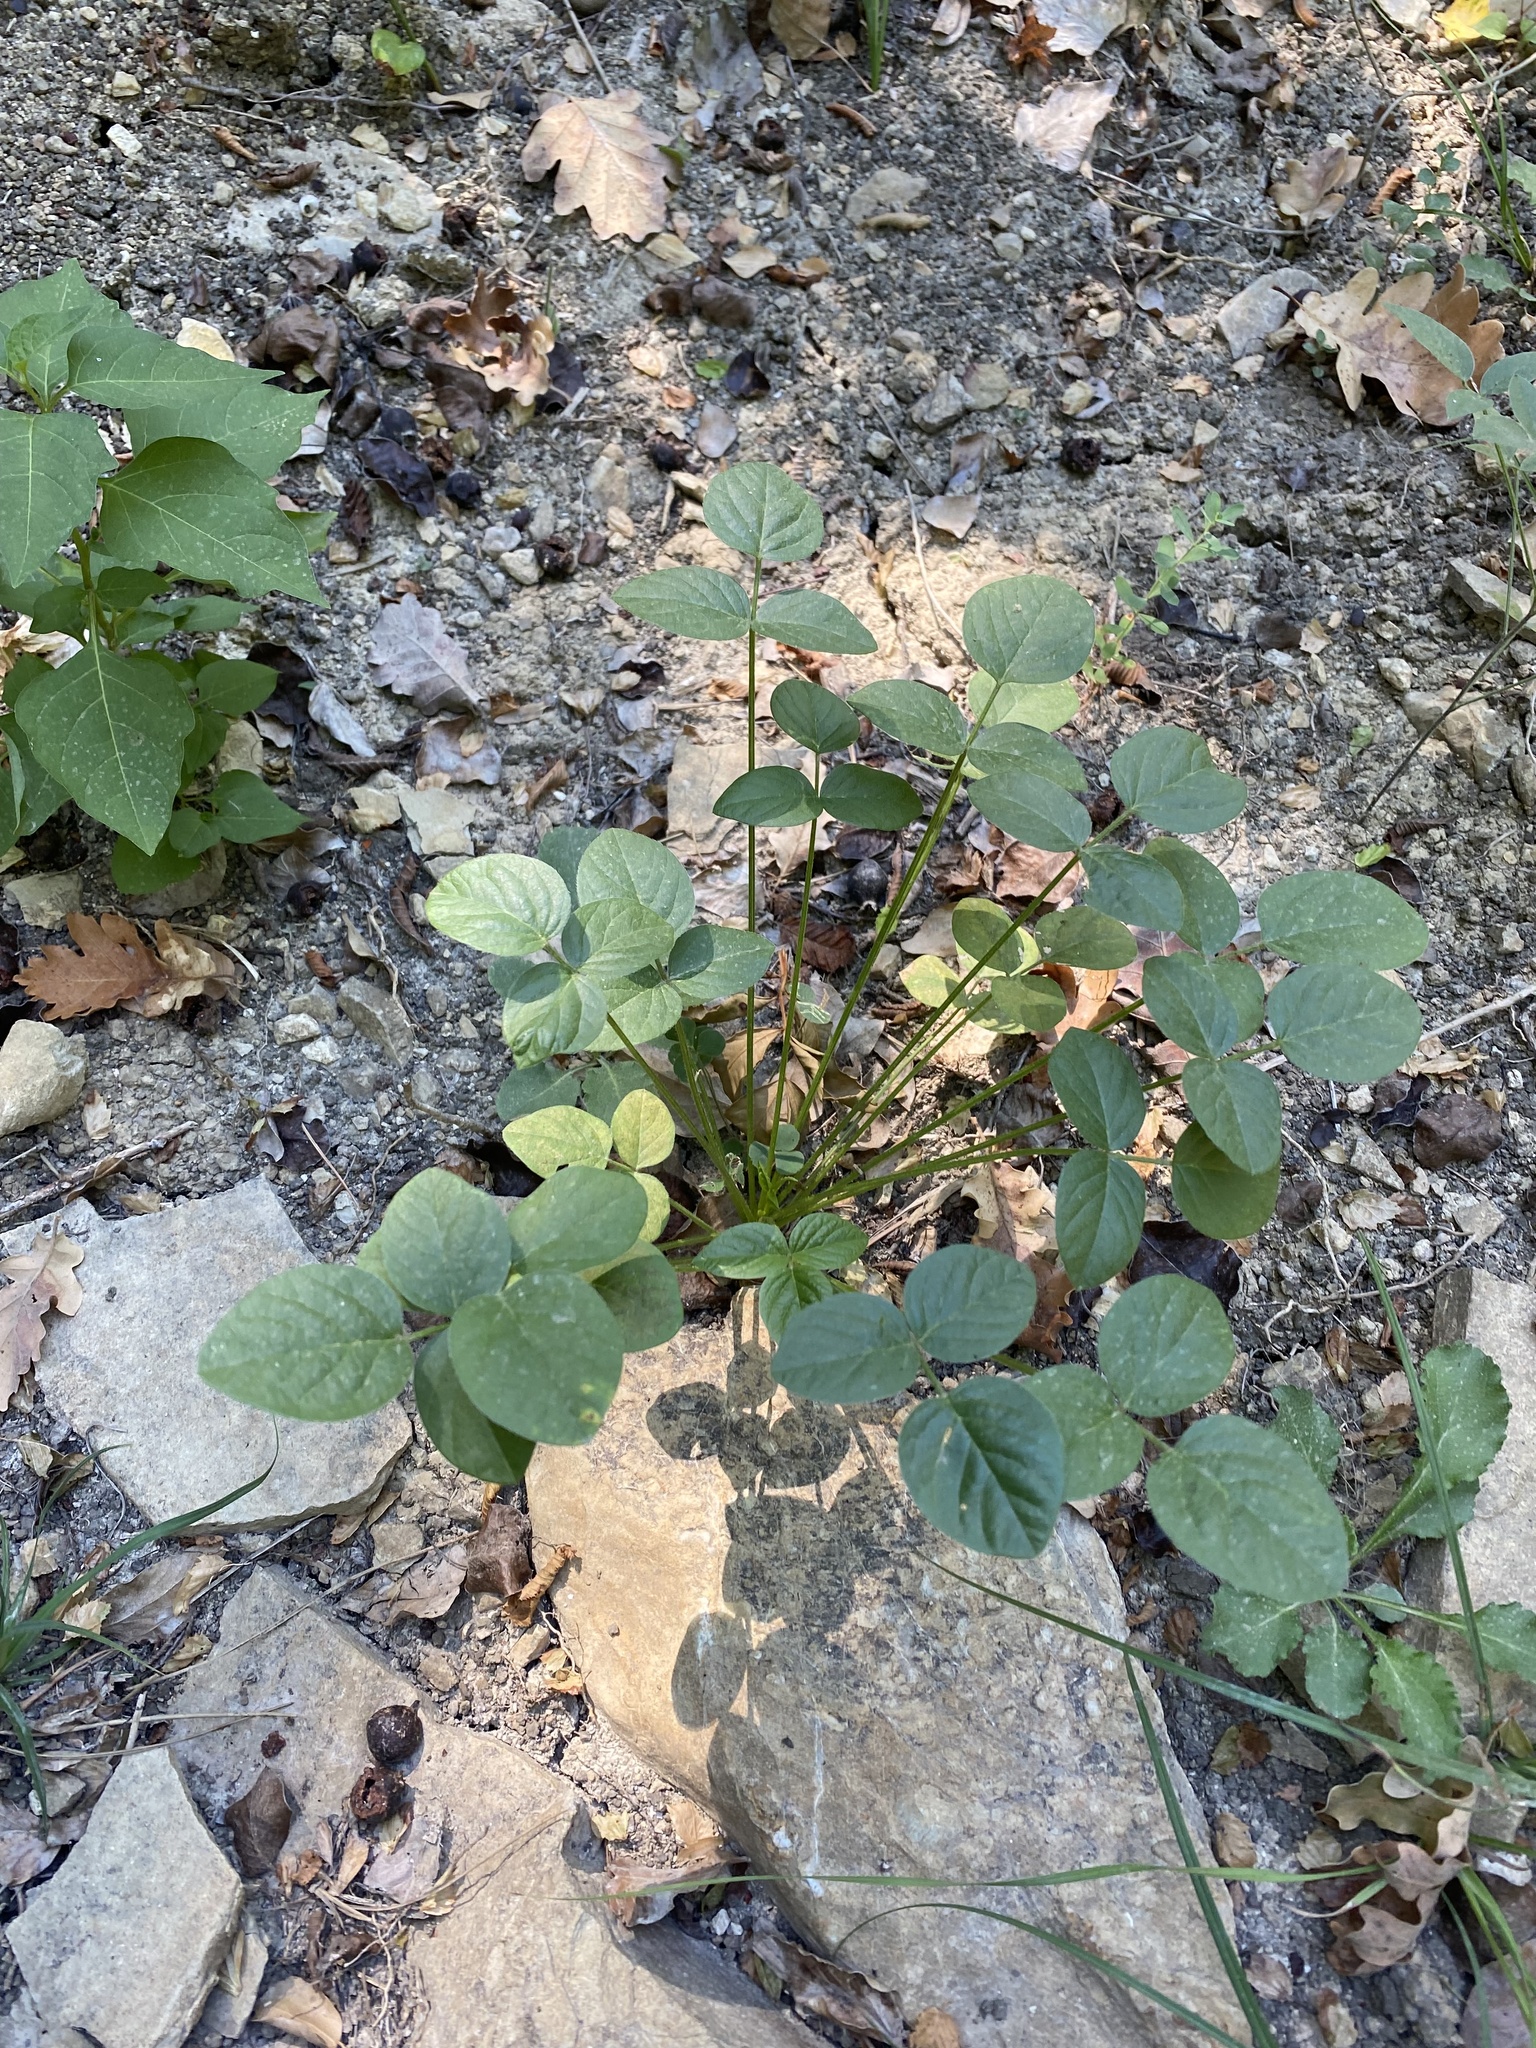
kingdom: Plantae
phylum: Tracheophyta
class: Magnoliopsida
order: Fabales
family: Fabaceae
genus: Bituminaria
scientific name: Bituminaria bituminosa
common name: Arabian pea
